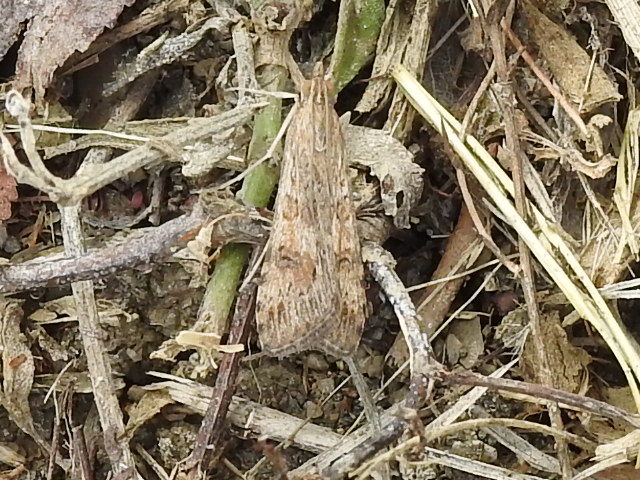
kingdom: Animalia
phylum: Arthropoda
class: Insecta
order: Lepidoptera
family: Crambidae
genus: Nomophila
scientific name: Nomophila nearctica
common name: American rush veneer
